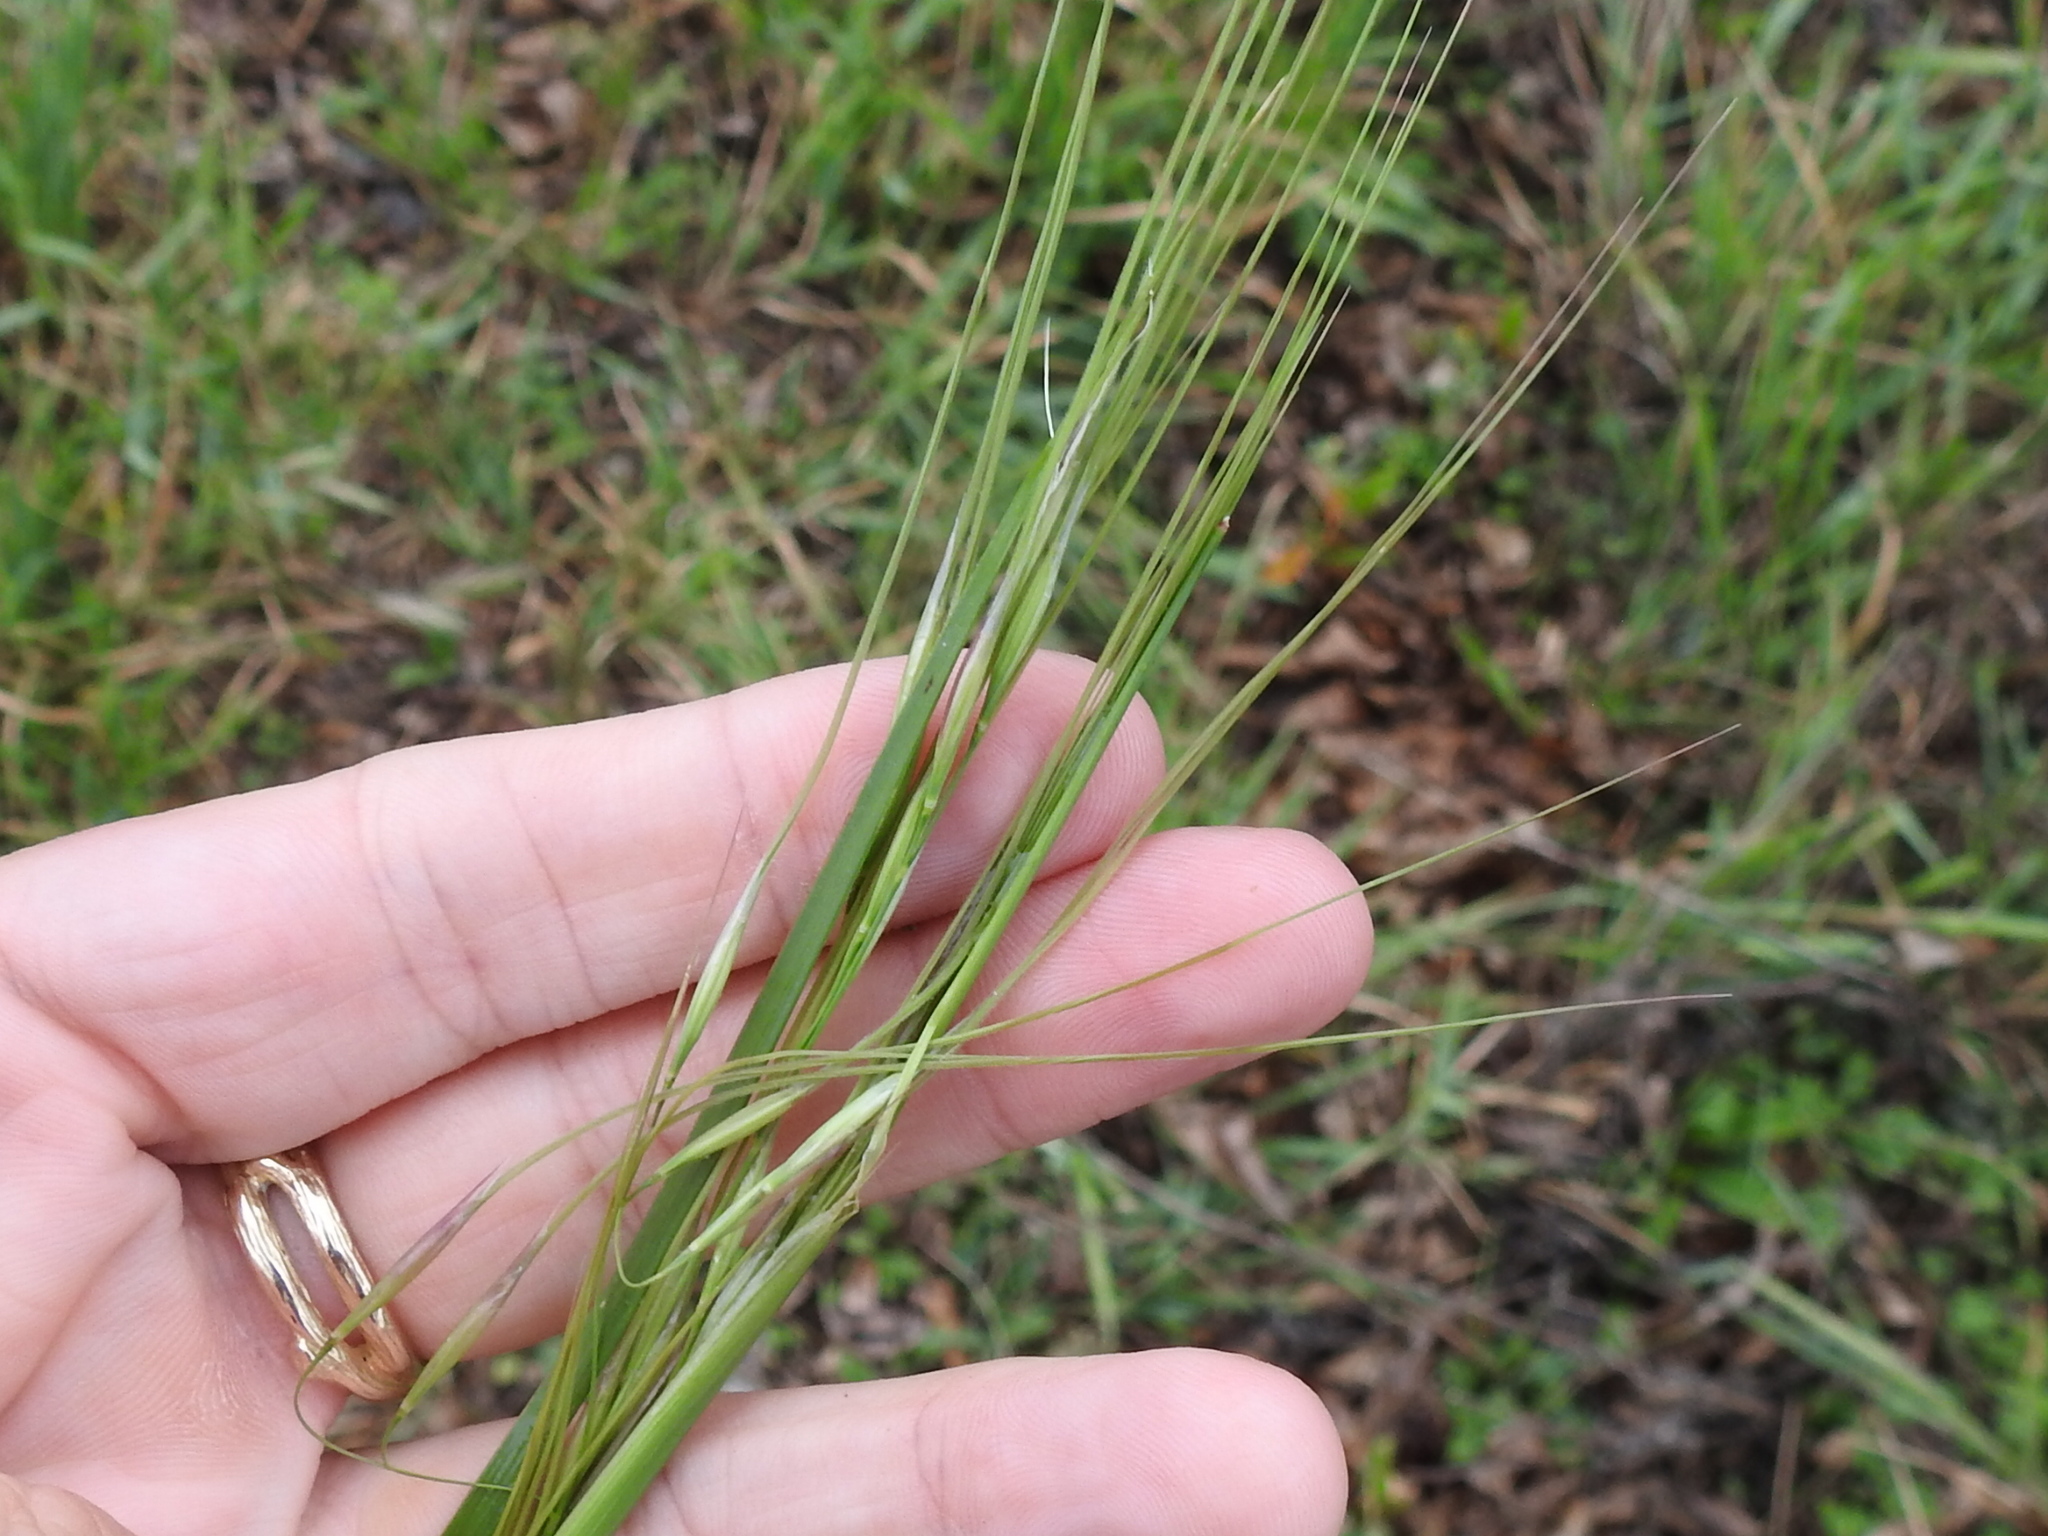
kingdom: Plantae
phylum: Tracheophyta
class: Liliopsida
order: Poales
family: Poaceae
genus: Nassella
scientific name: Nassella leucotricha
